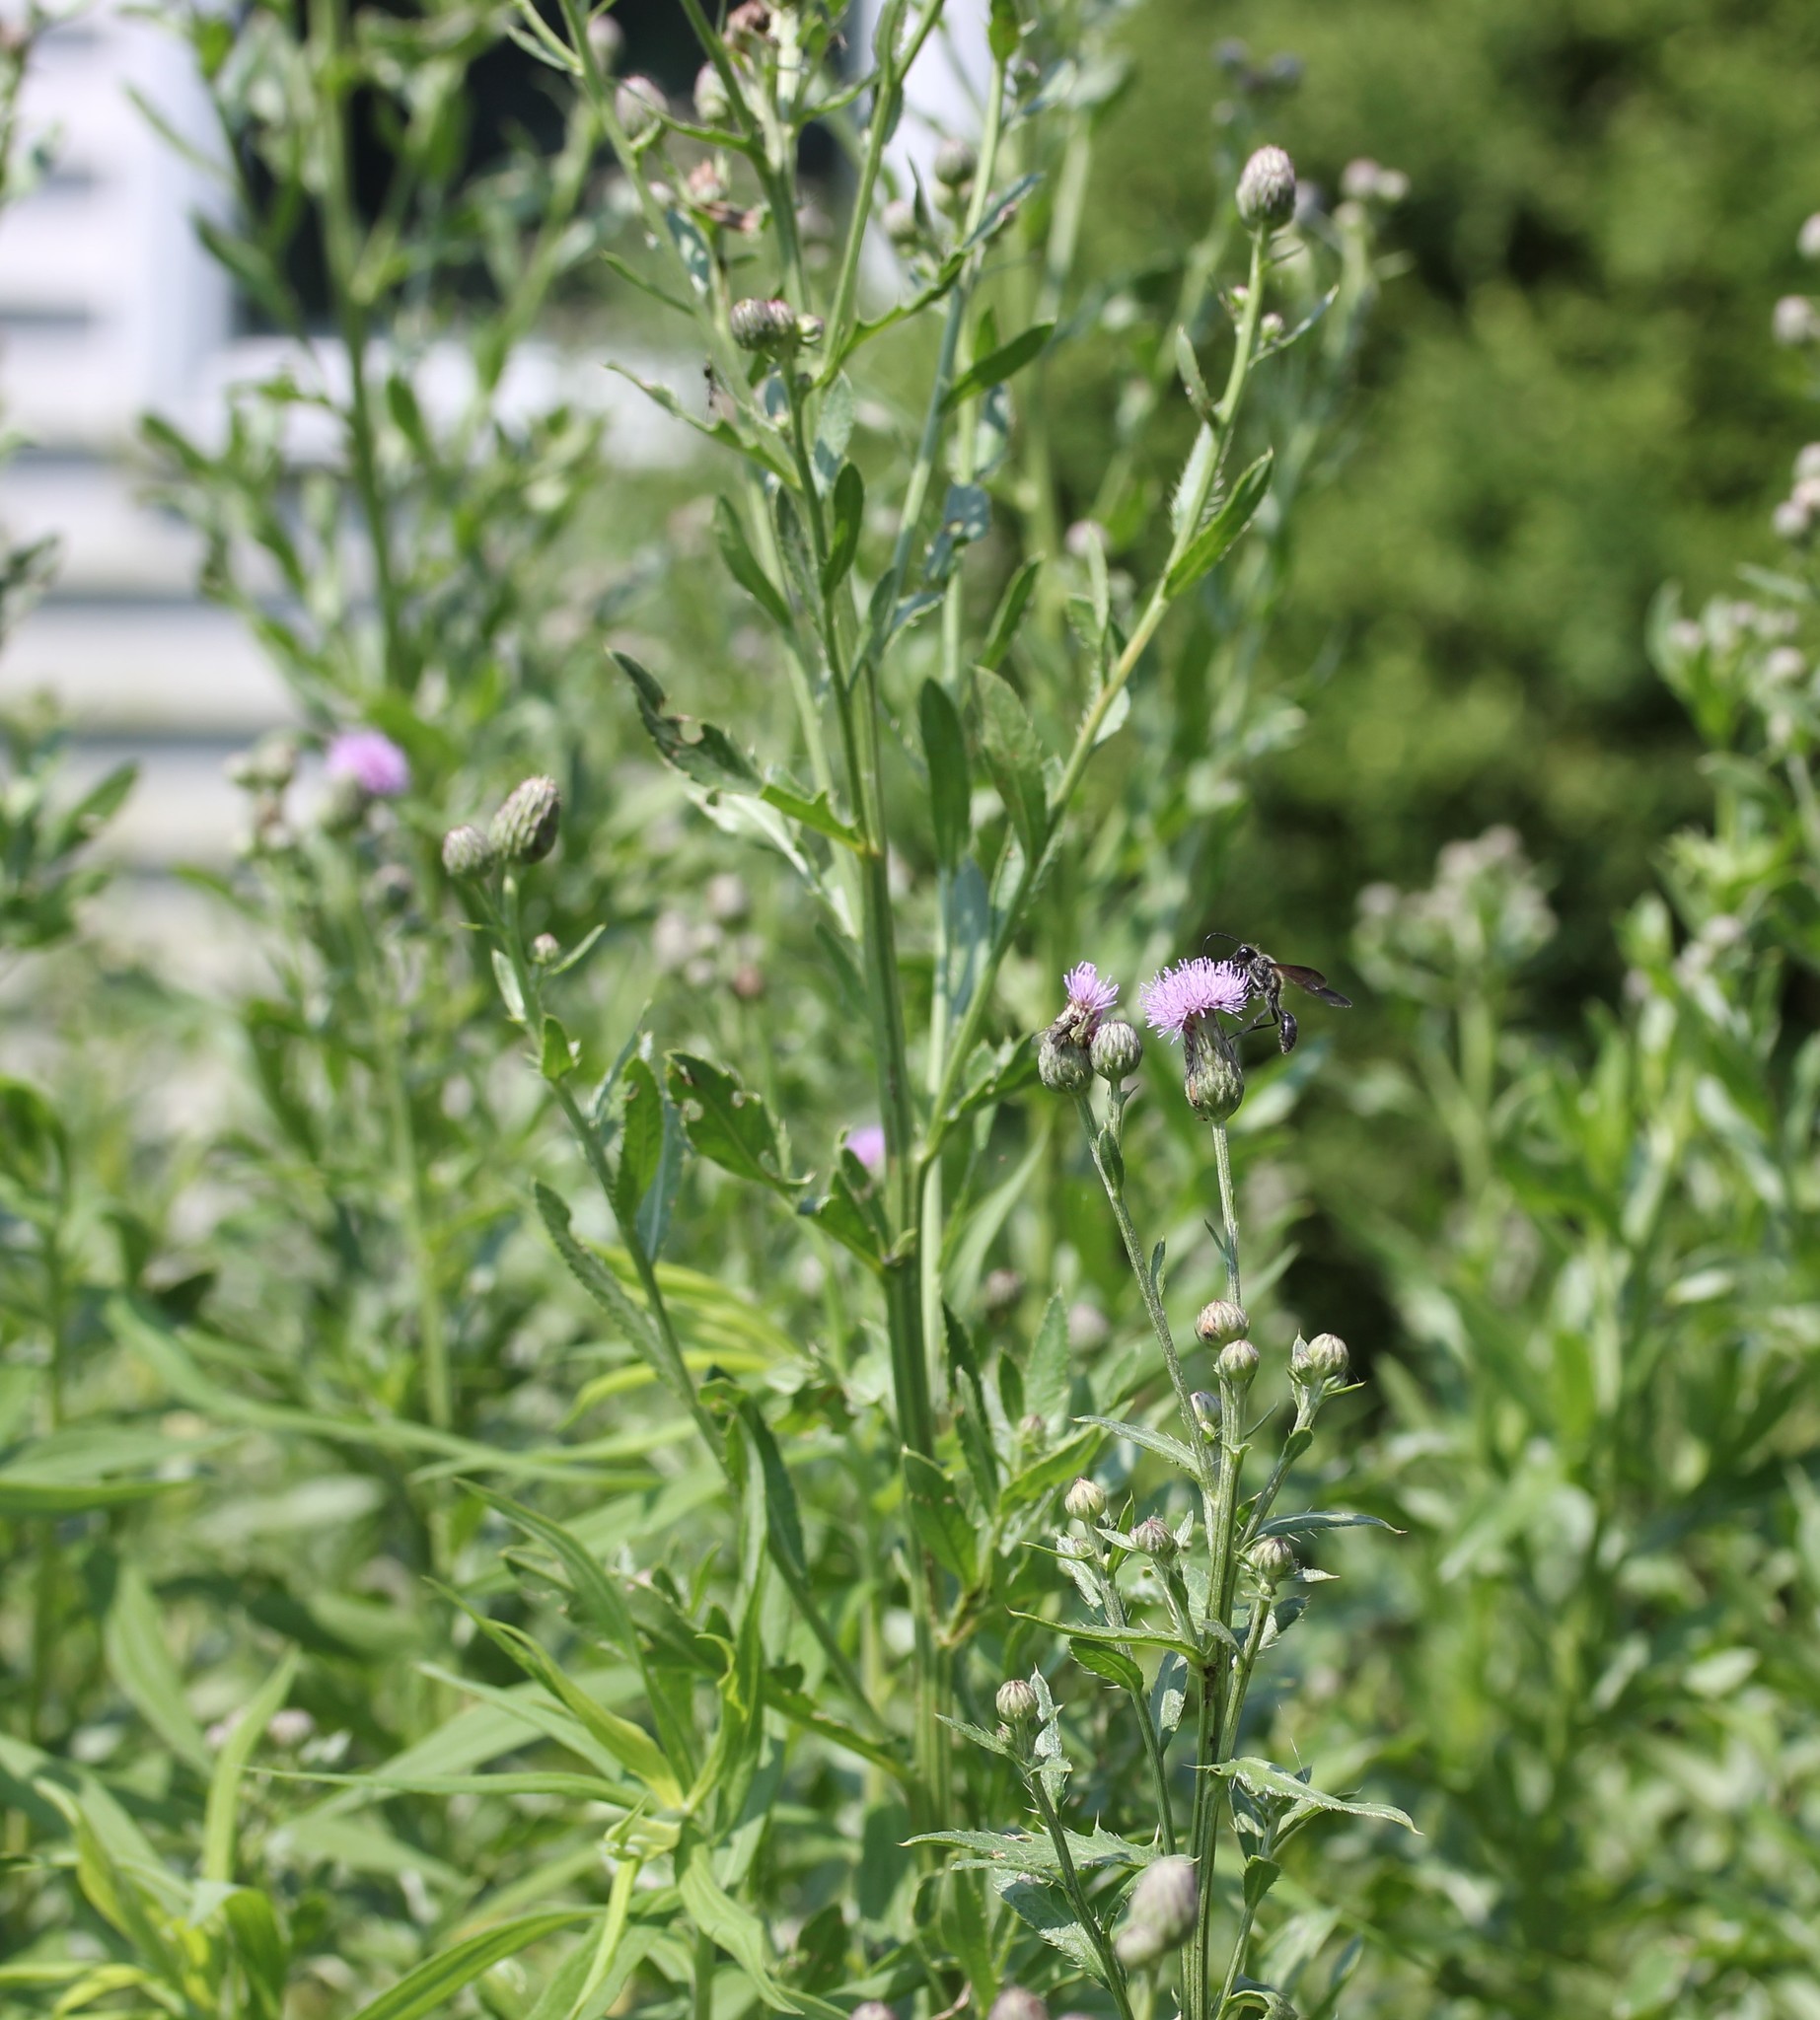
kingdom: Plantae
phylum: Tracheophyta
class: Magnoliopsida
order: Asterales
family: Asteraceae
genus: Cirsium
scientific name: Cirsium arvense
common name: Creeping thistle
